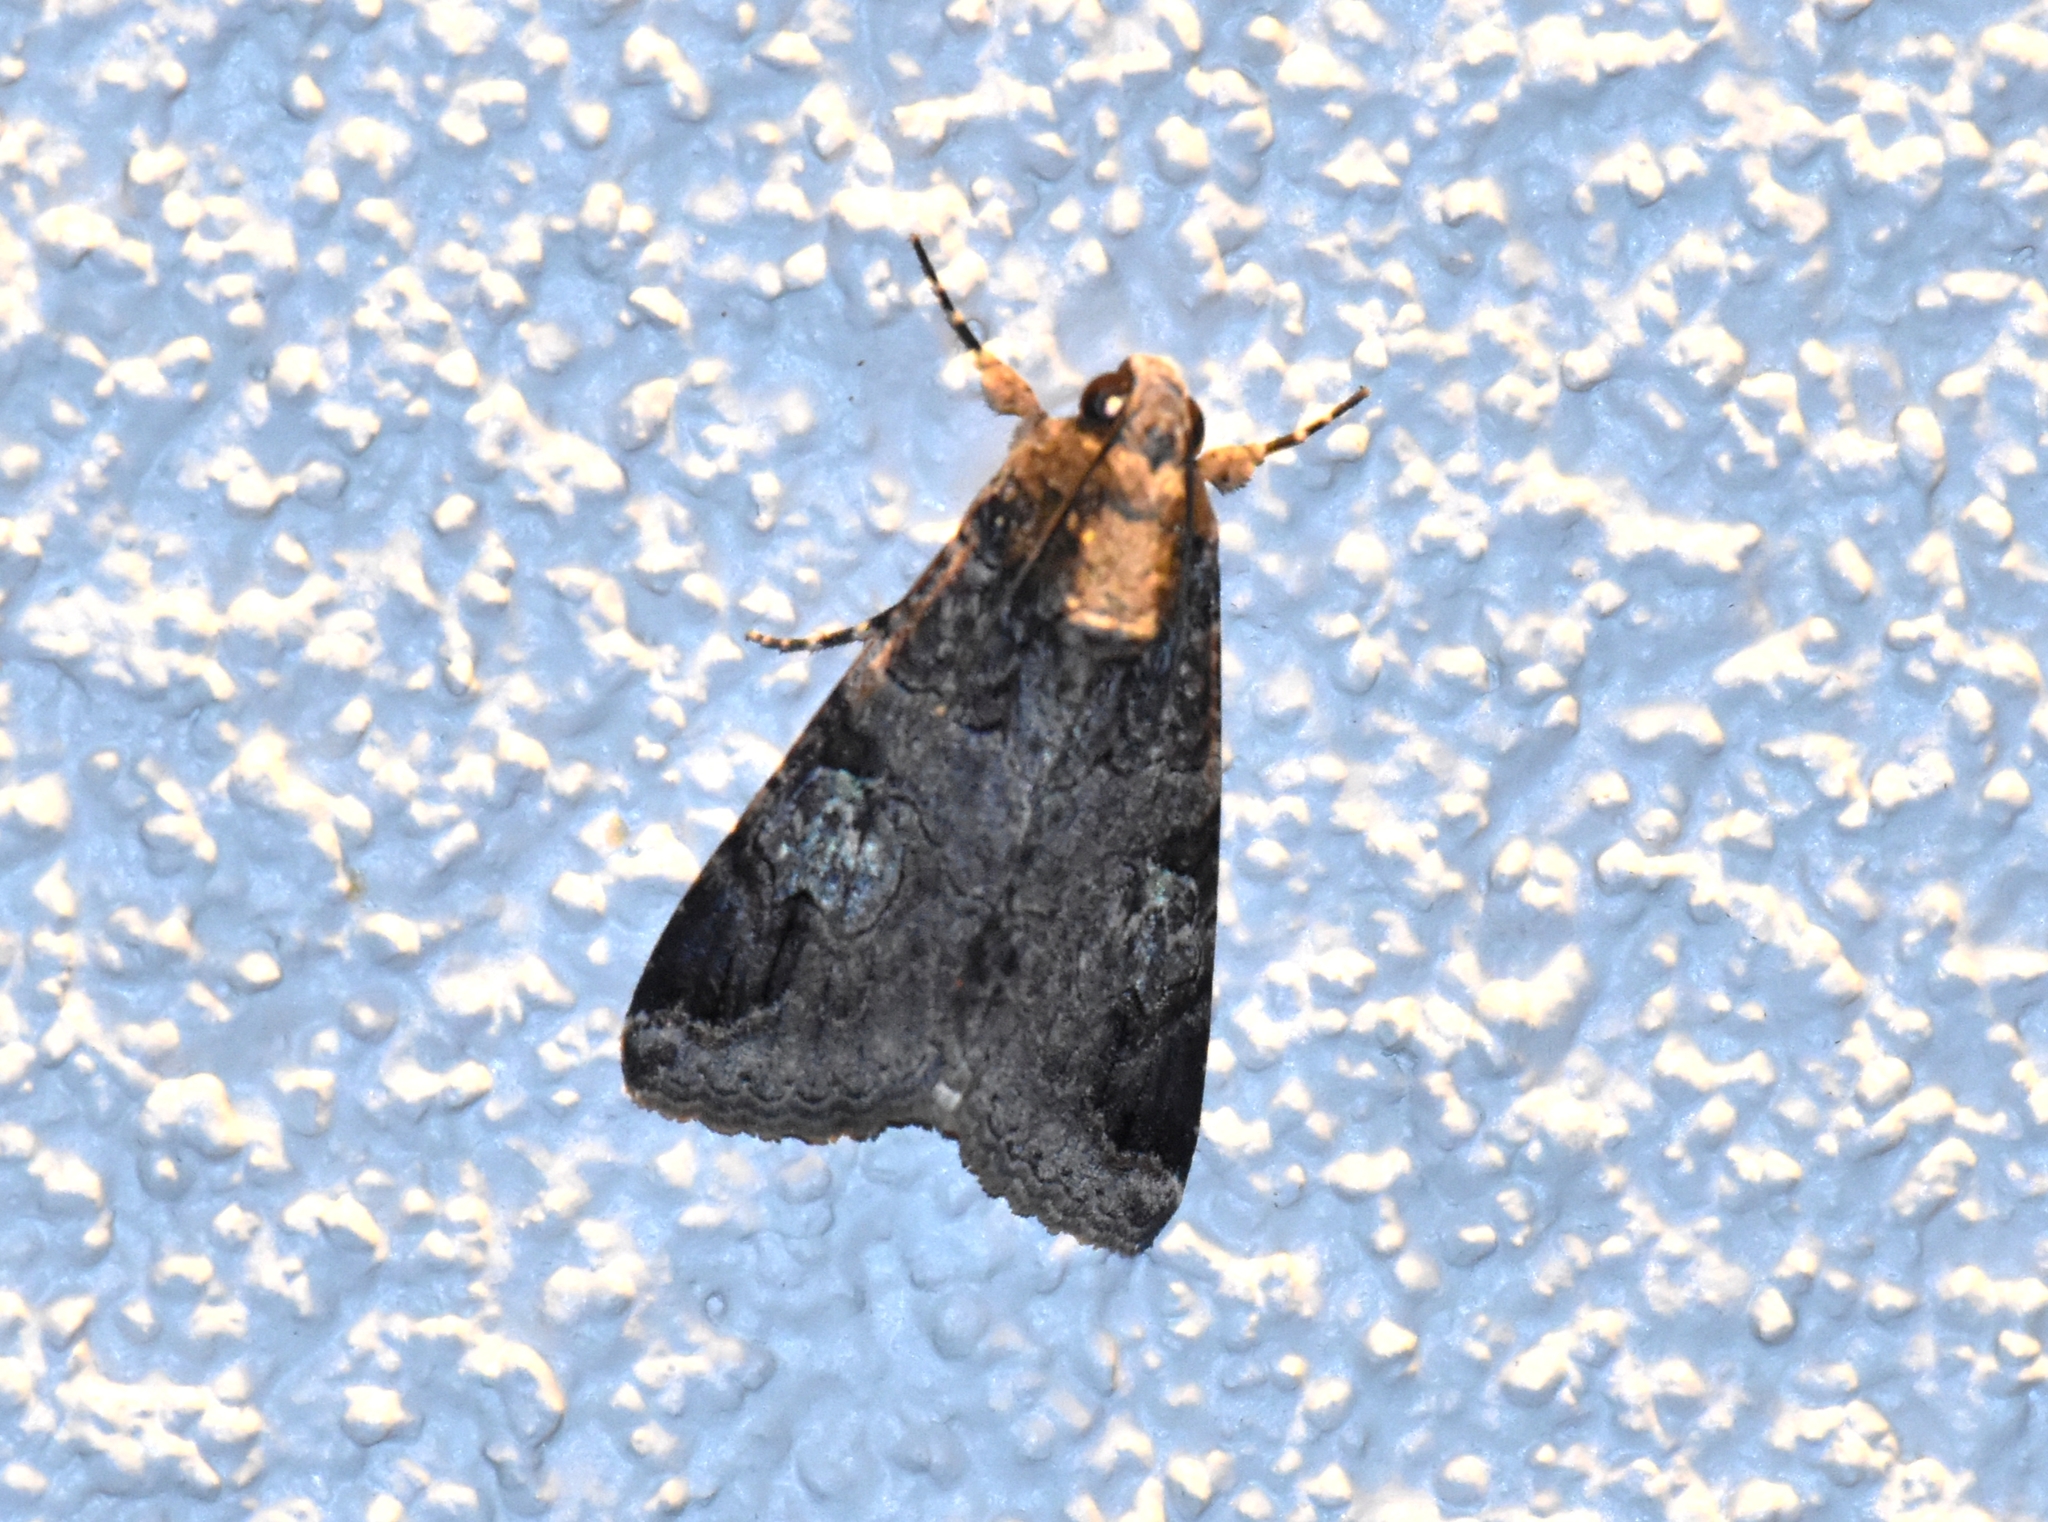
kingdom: Animalia
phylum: Arthropoda
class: Insecta
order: Lepidoptera
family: Erebidae
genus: Melipotis
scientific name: Melipotis famelica
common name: Famelica melipotis moth
